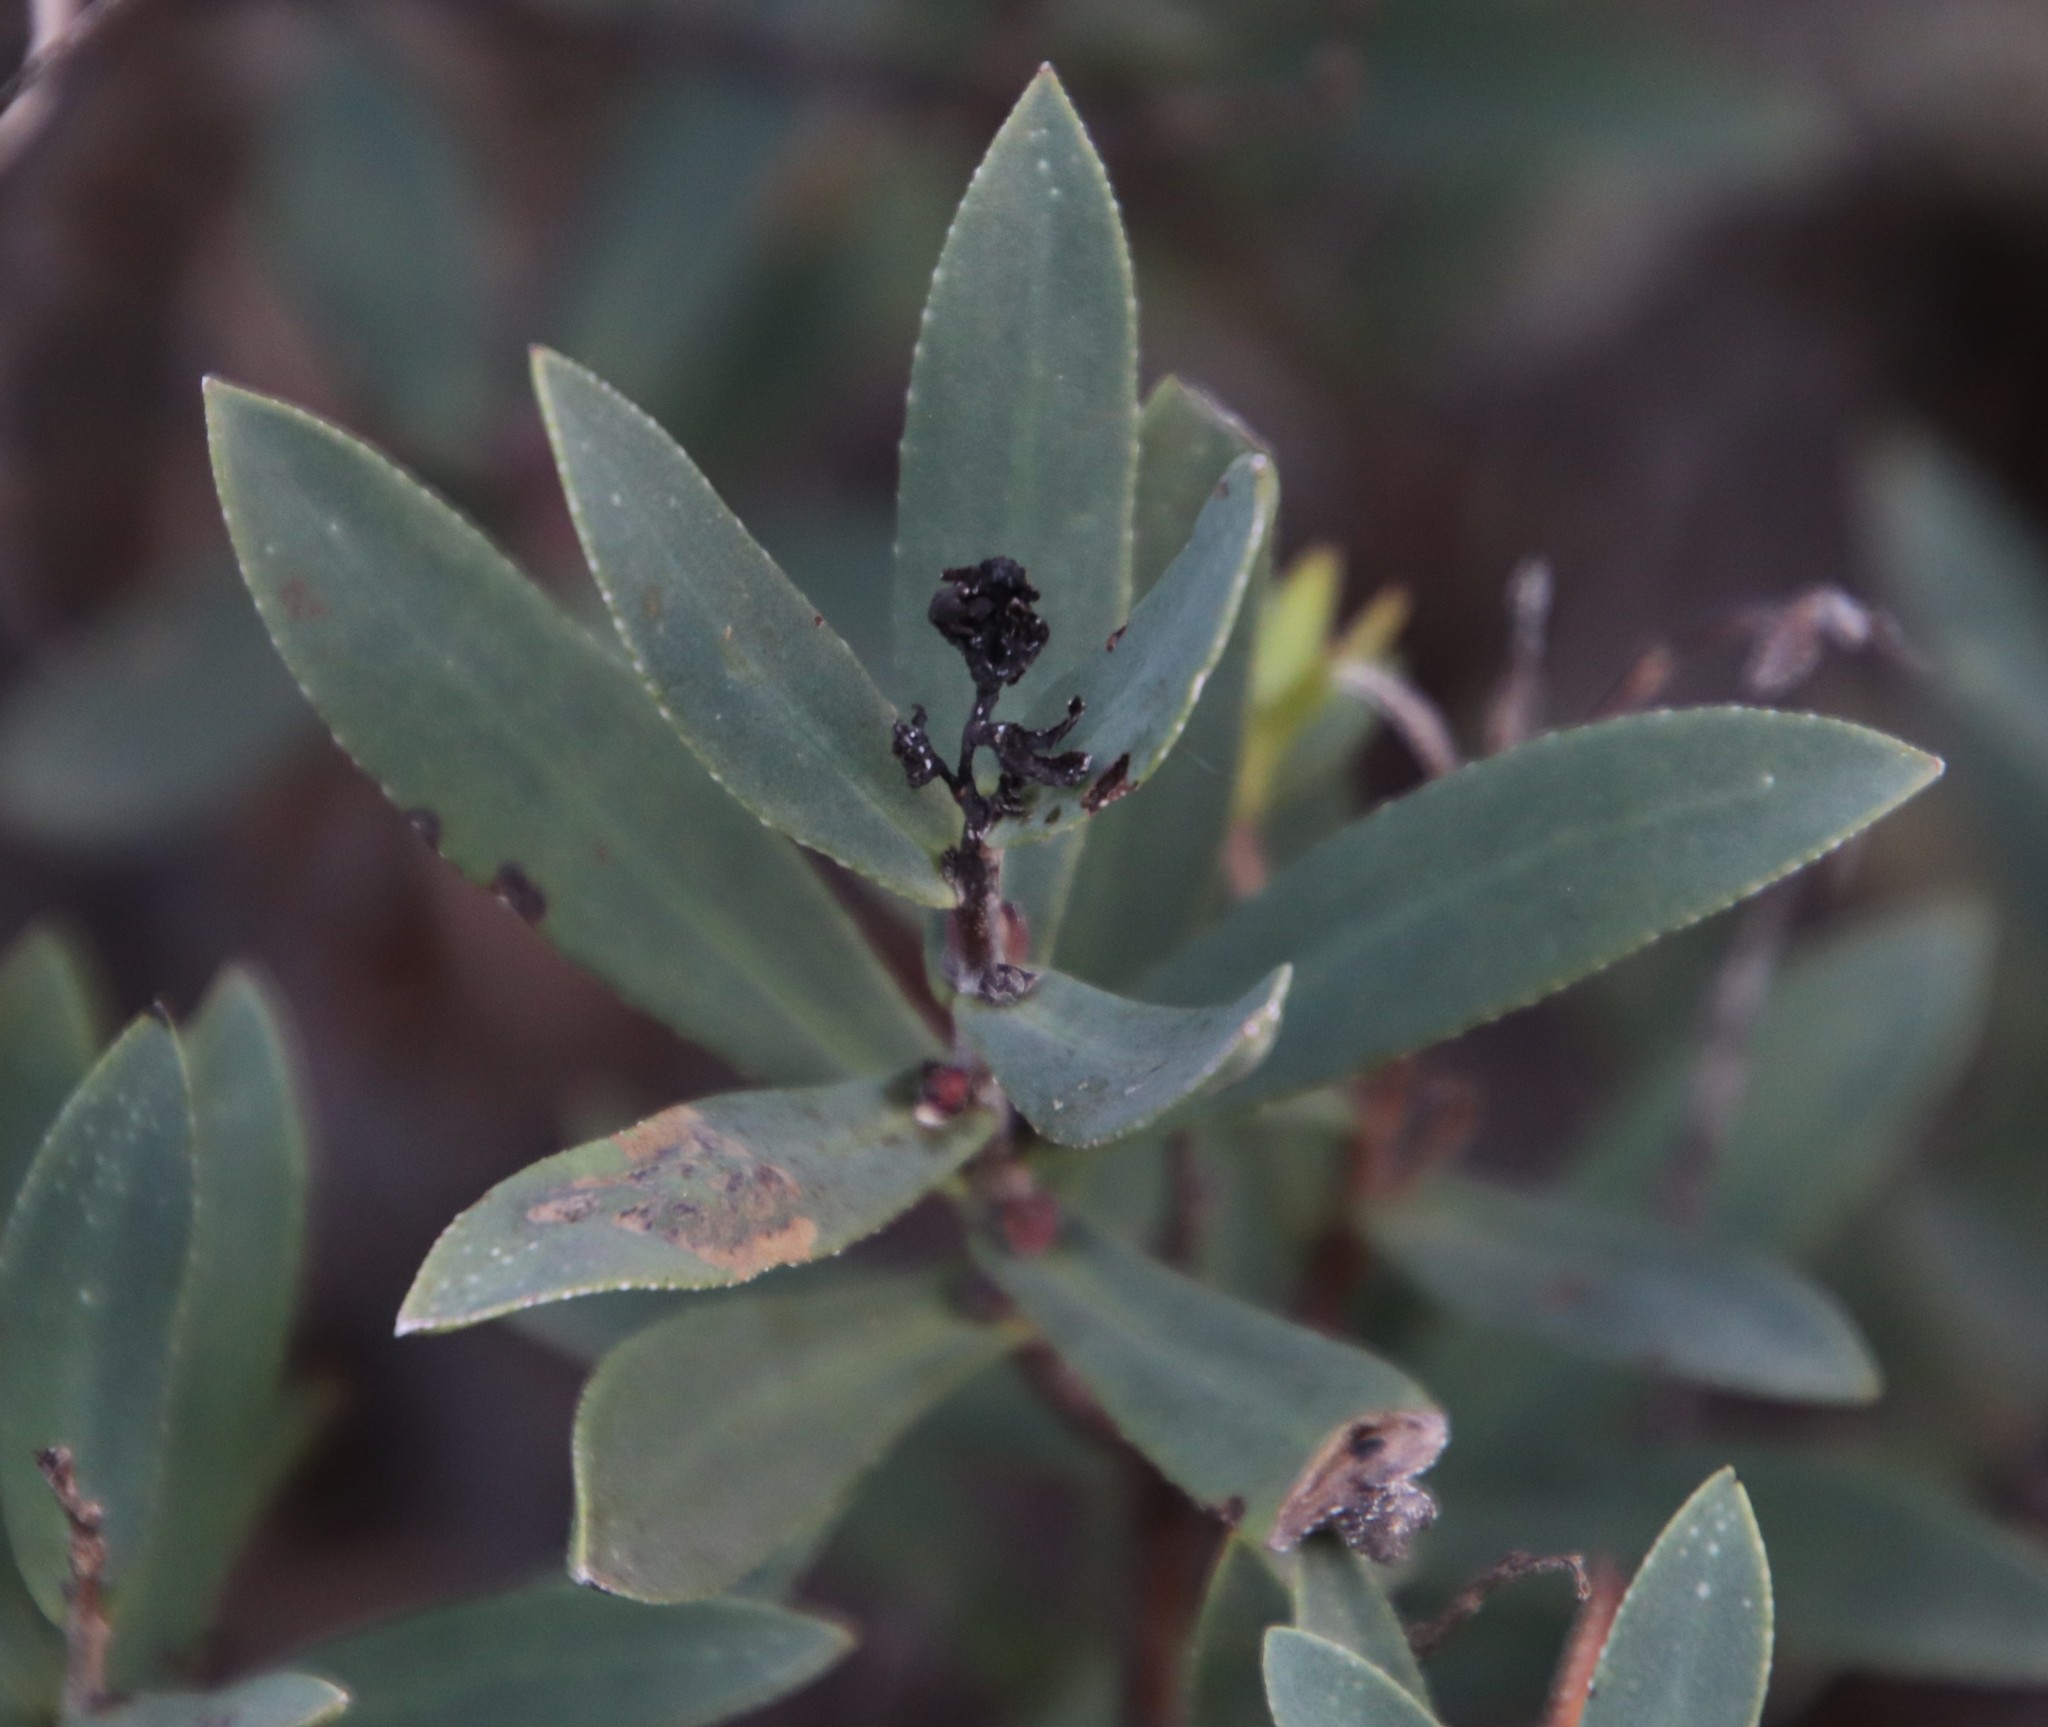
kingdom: Plantae
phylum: Tracheophyta
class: Magnoliopsida
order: Boraginales
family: Boraginaceae
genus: Lobostemon
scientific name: Lobostemon glaucophyllus
